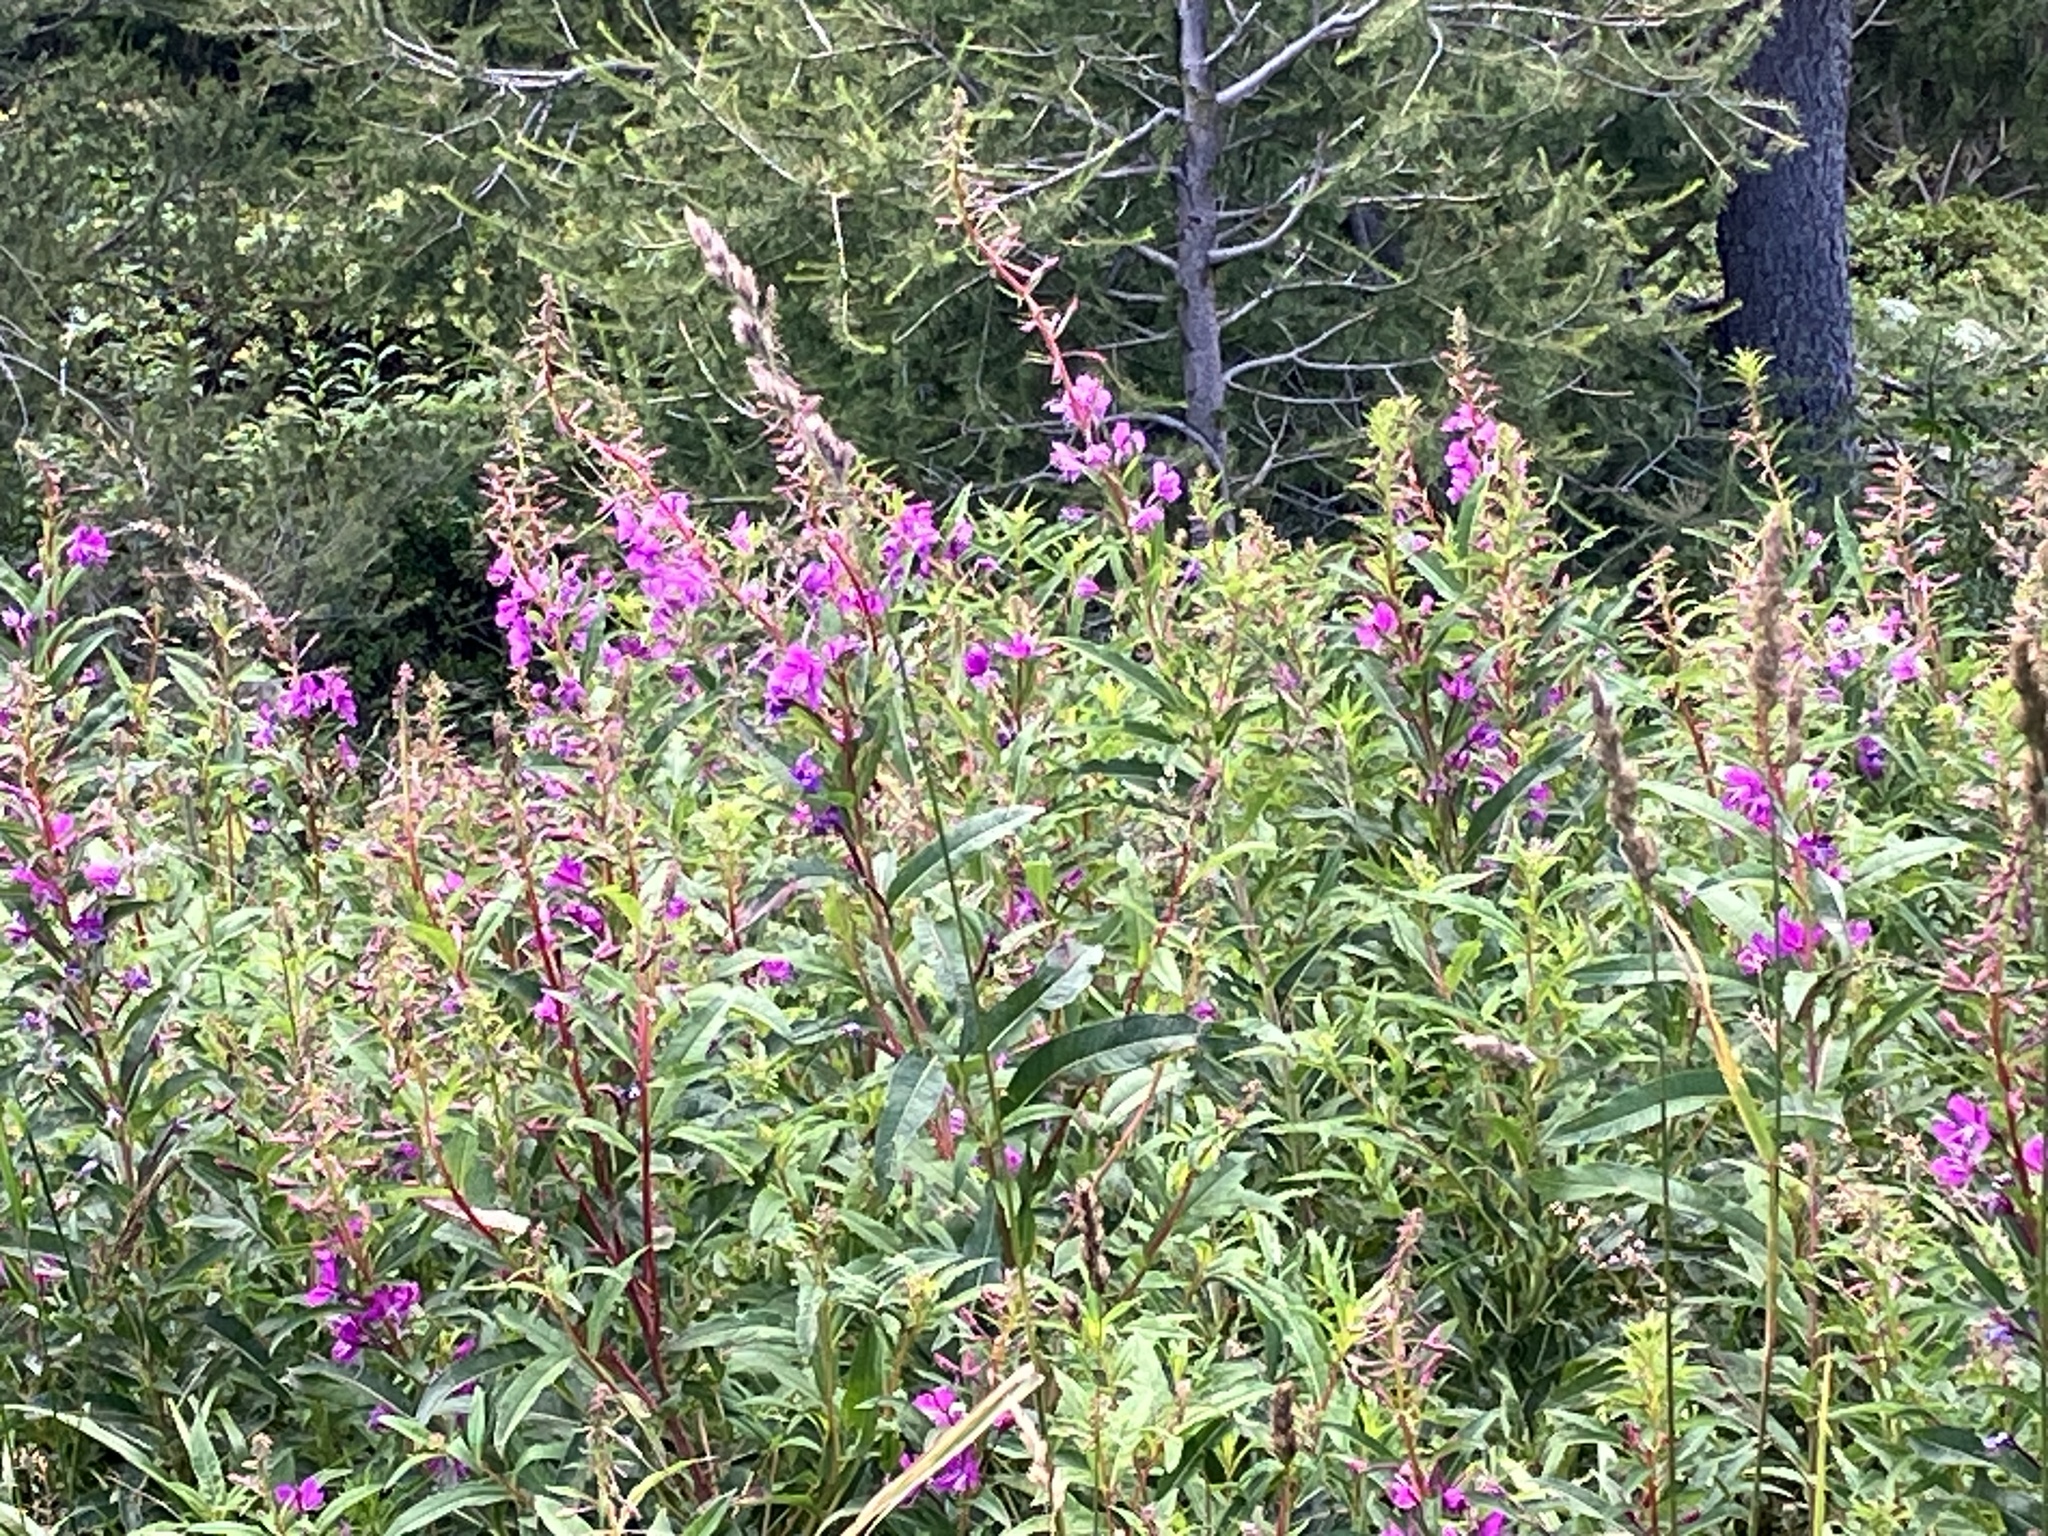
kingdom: Plantae
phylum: Tracheophyta
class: Magnoliopsida
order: Myrtales
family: Onagraceae
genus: Chamaenerion
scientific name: Chamaenerion angustifolium
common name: Fireweed
